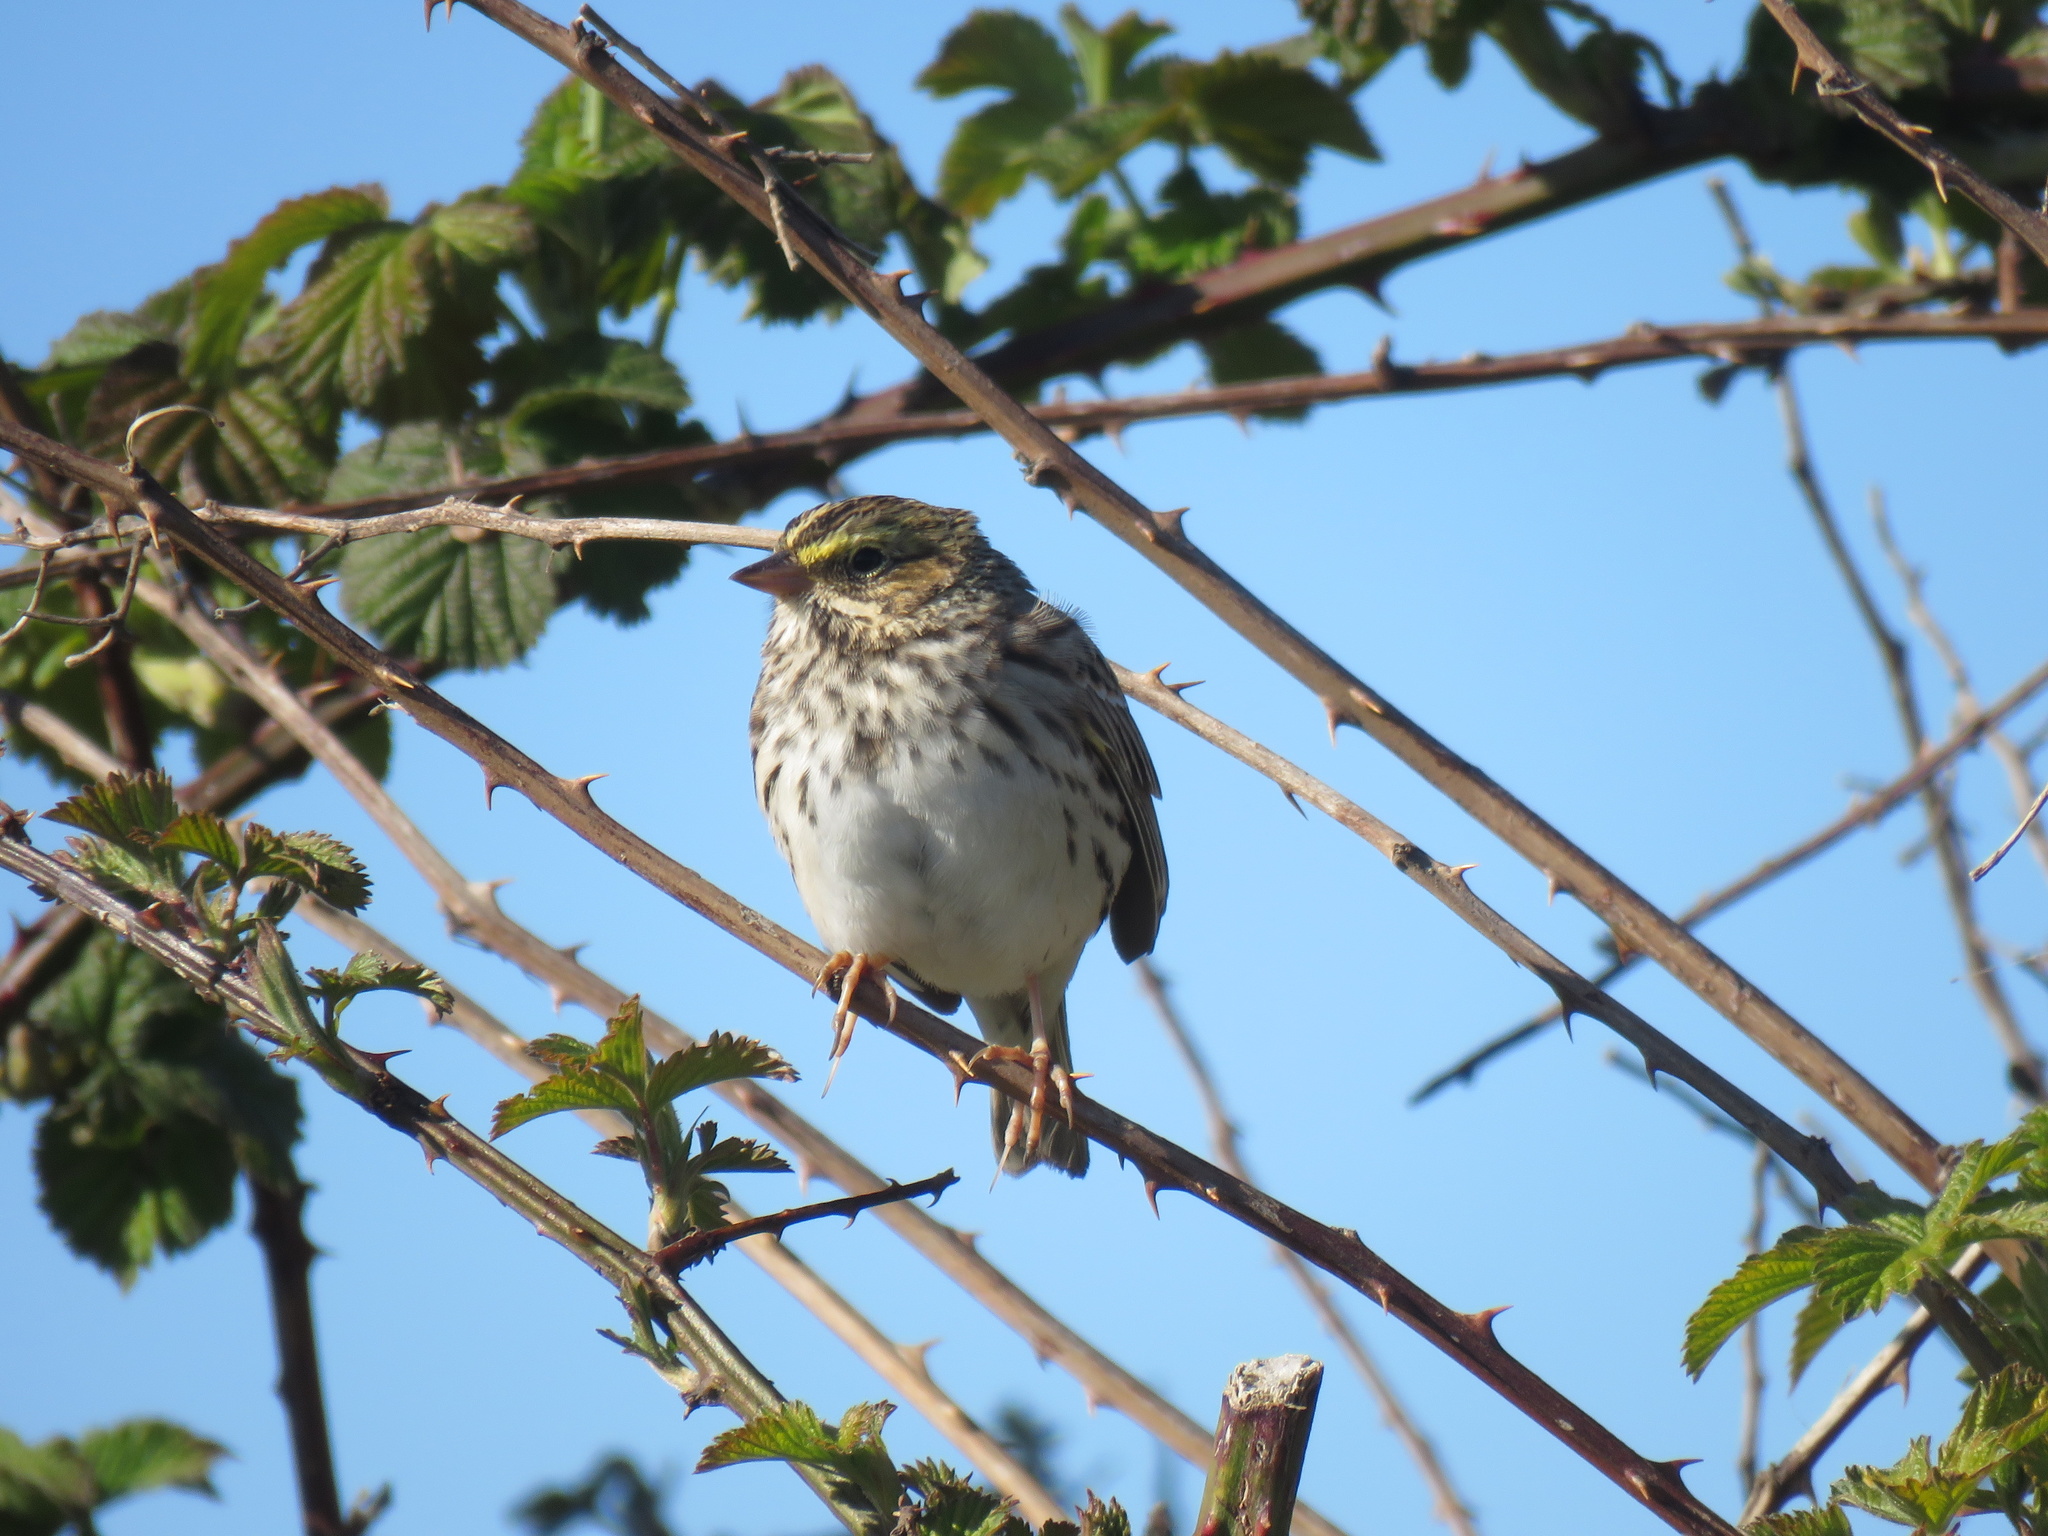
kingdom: Animalia
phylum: Chordata
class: Aves
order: Passeriformes
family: Passerellidae
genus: Passerculus
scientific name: Passerculus sandwichensis
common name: Savannah sparrow
